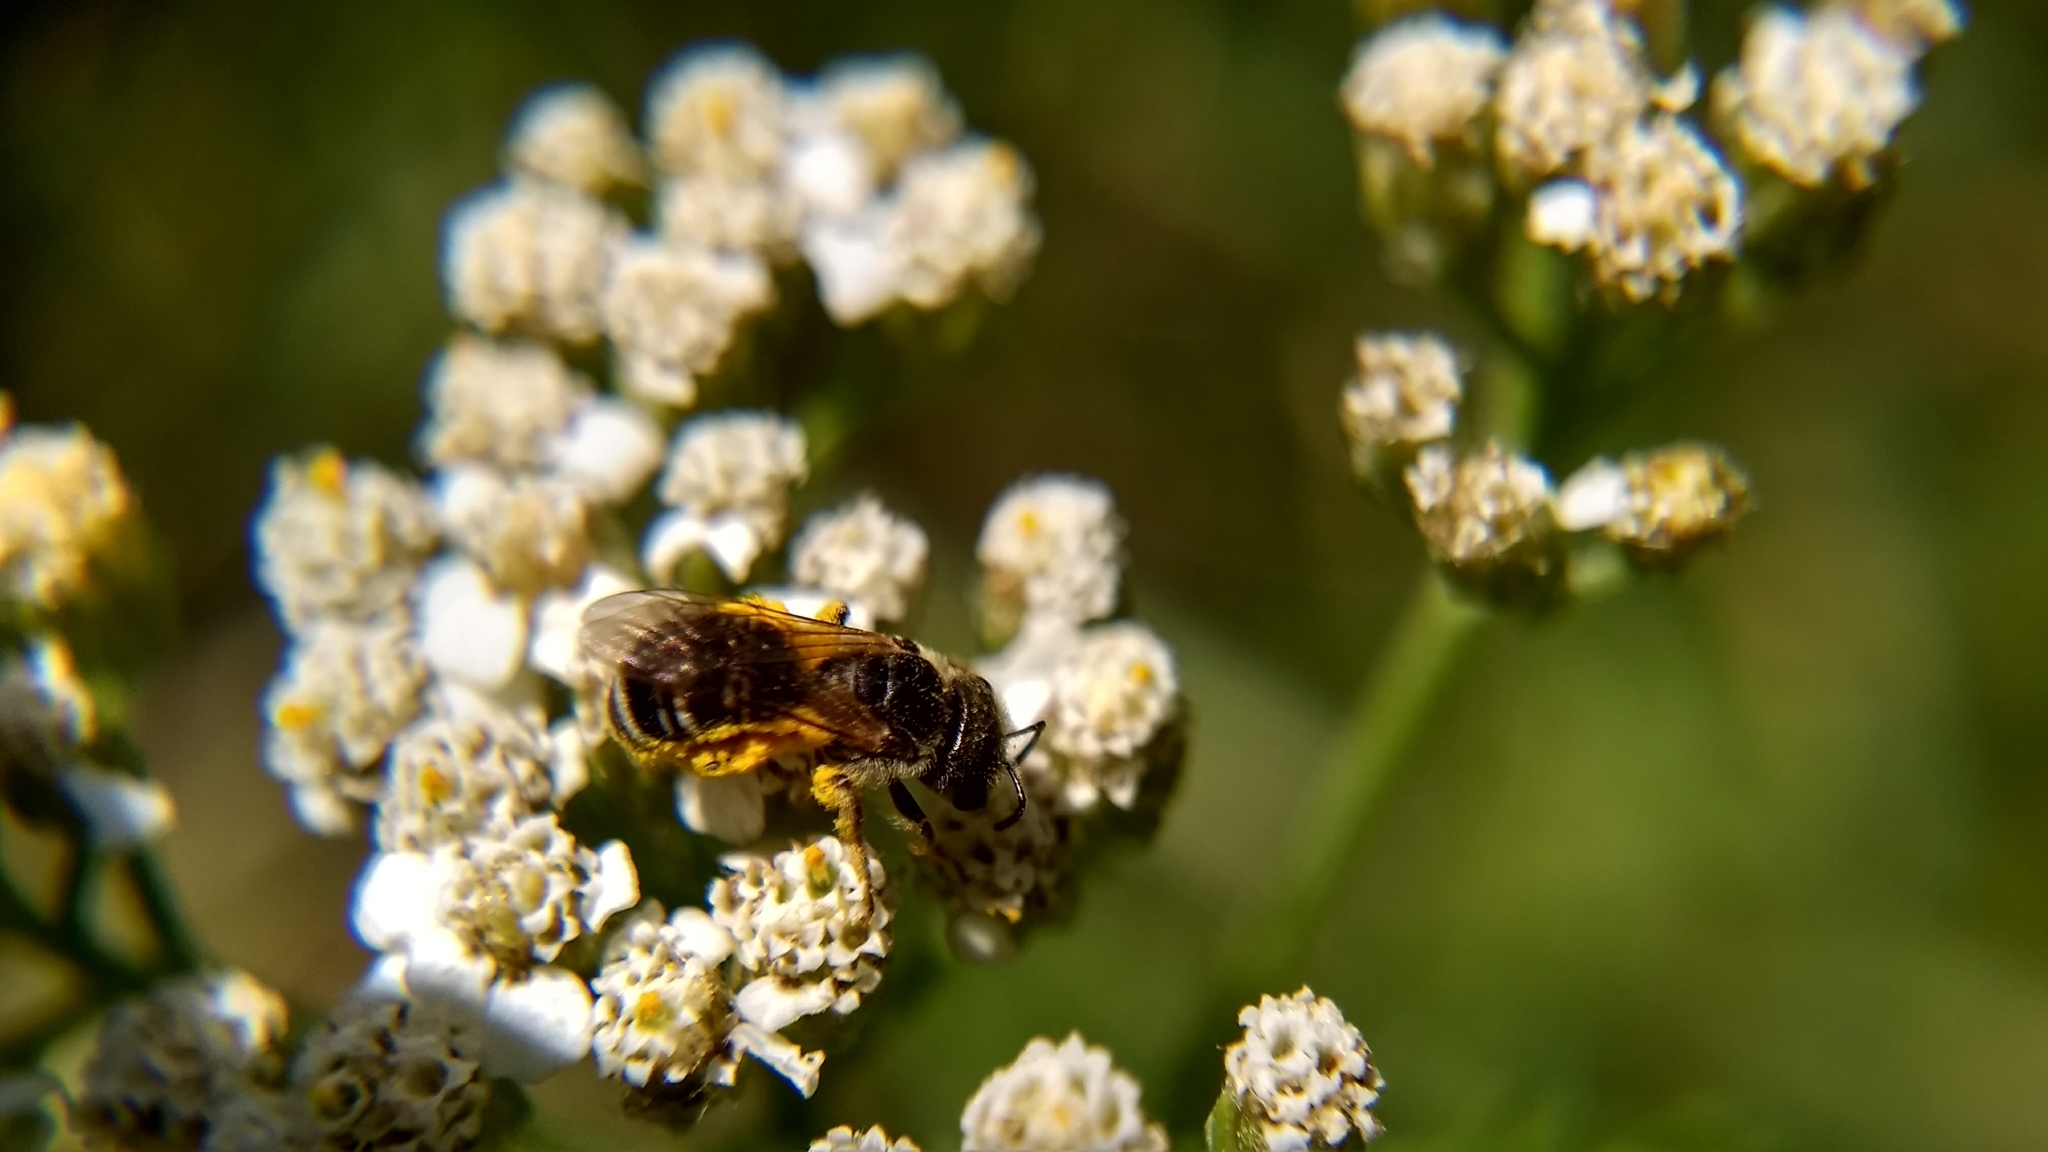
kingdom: Animalia
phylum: Arthropoda
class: Insecta
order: Hymenoptera
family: Halictidae
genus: Halictus
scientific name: Halictus ligatus
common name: Ligated furrow bee
